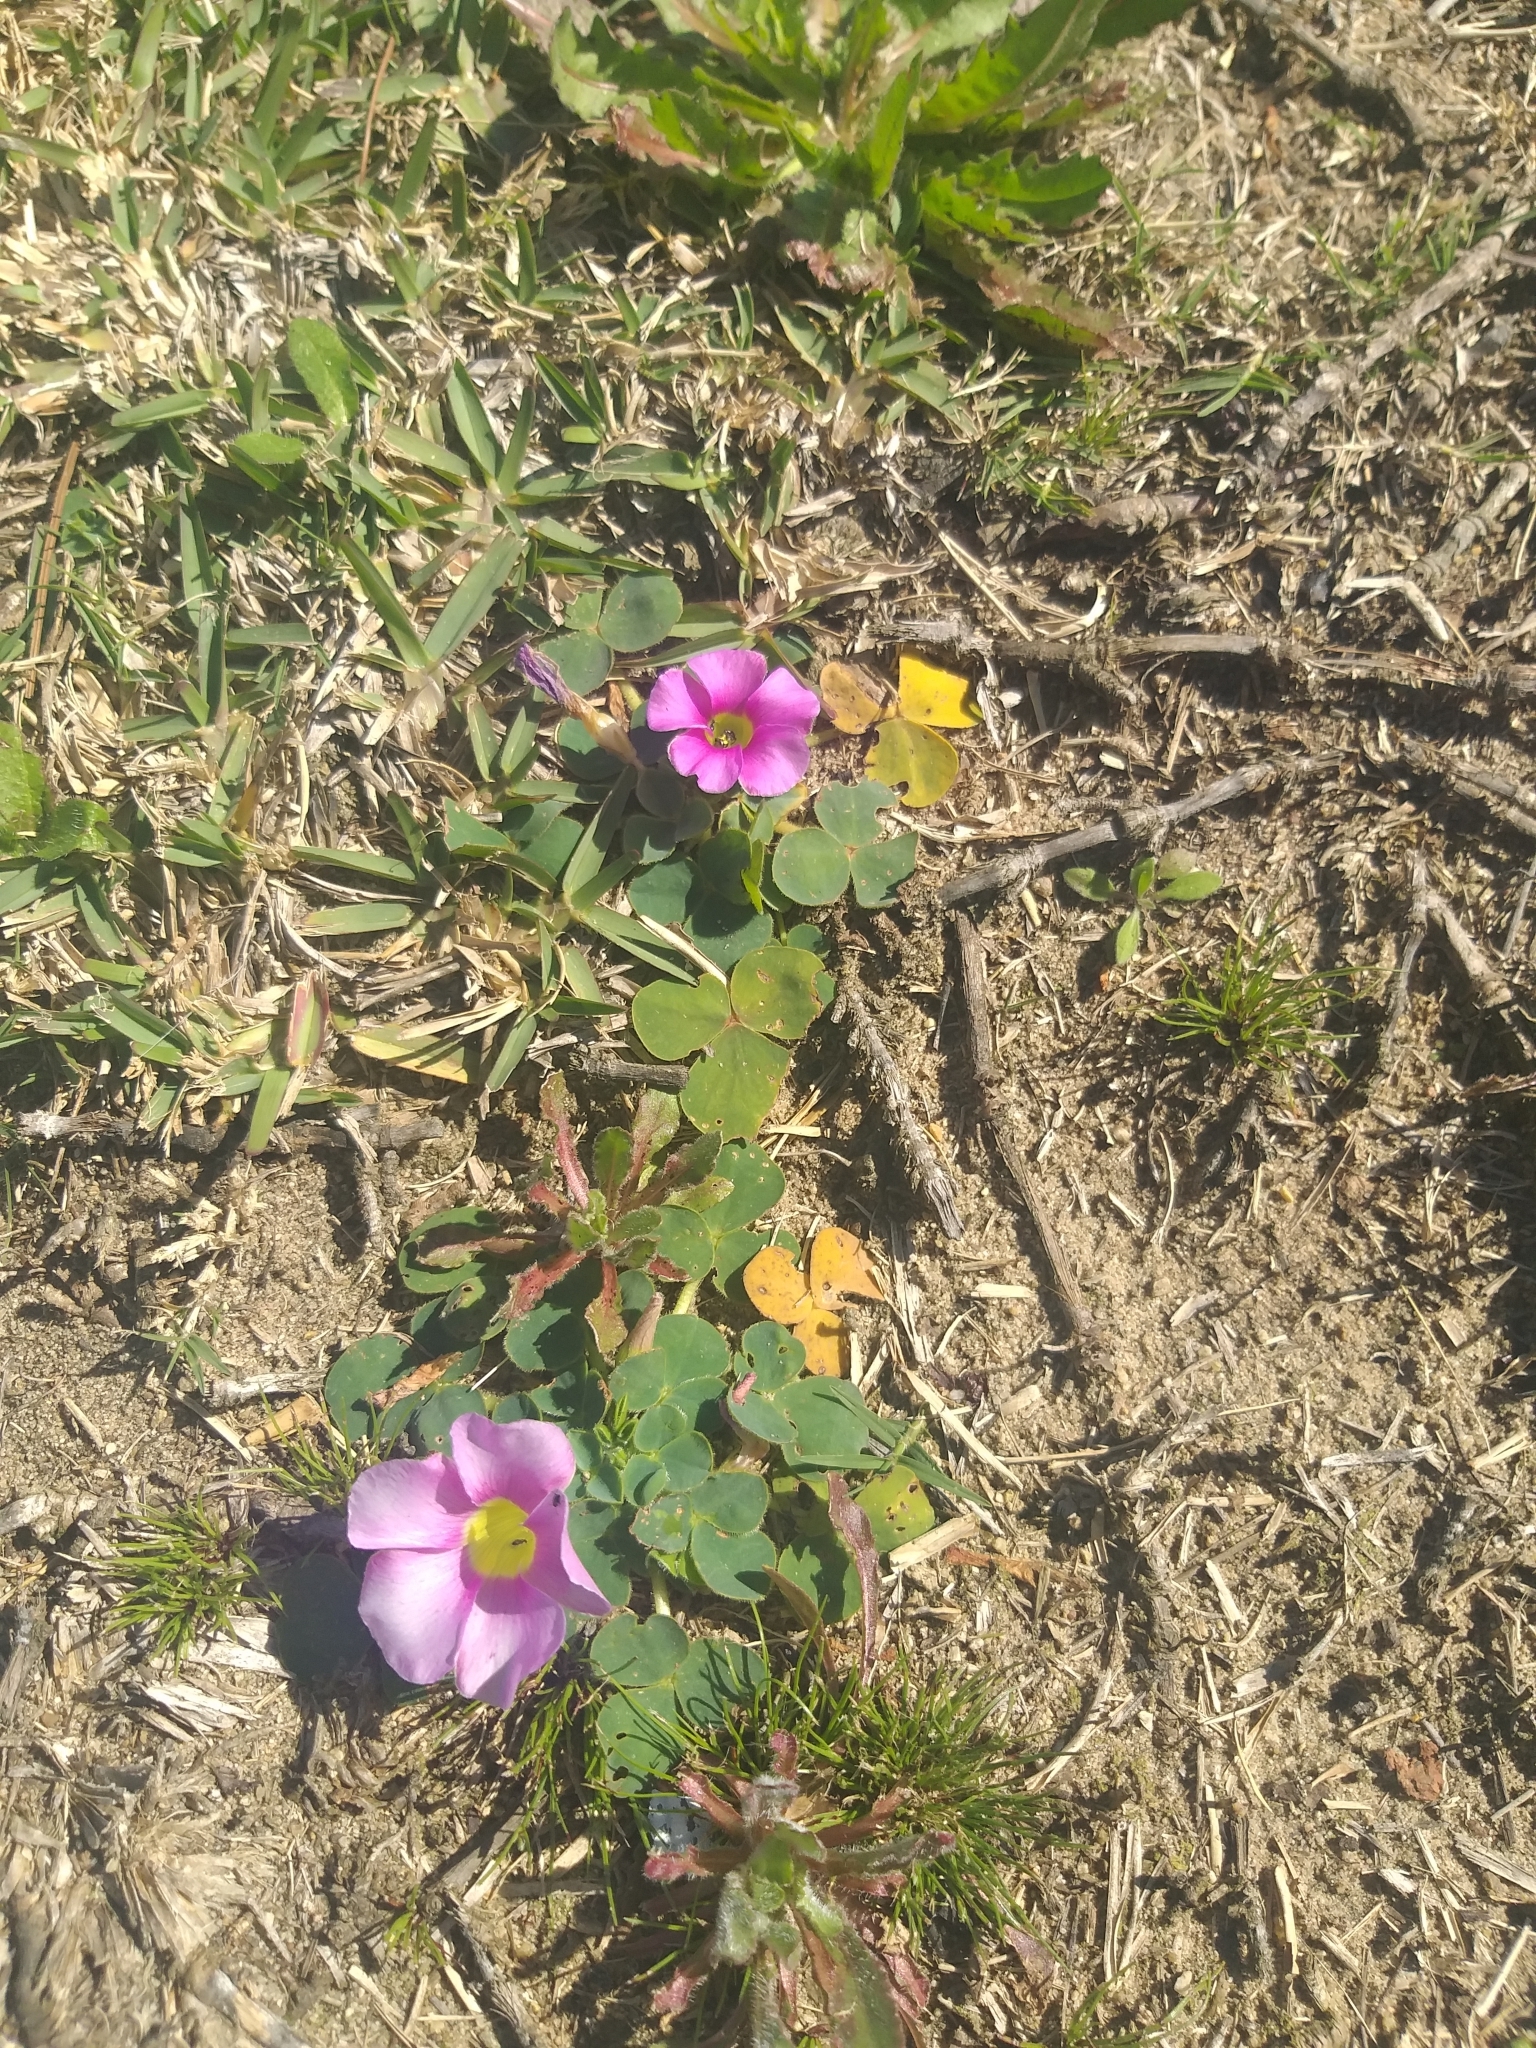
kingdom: Plantae
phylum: Tracheophyta
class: Magnoliopsida
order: Oxalidales
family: Oxalidaceae
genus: Oxalis
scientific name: Oxalis purpurea
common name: Purple woodsorrel
